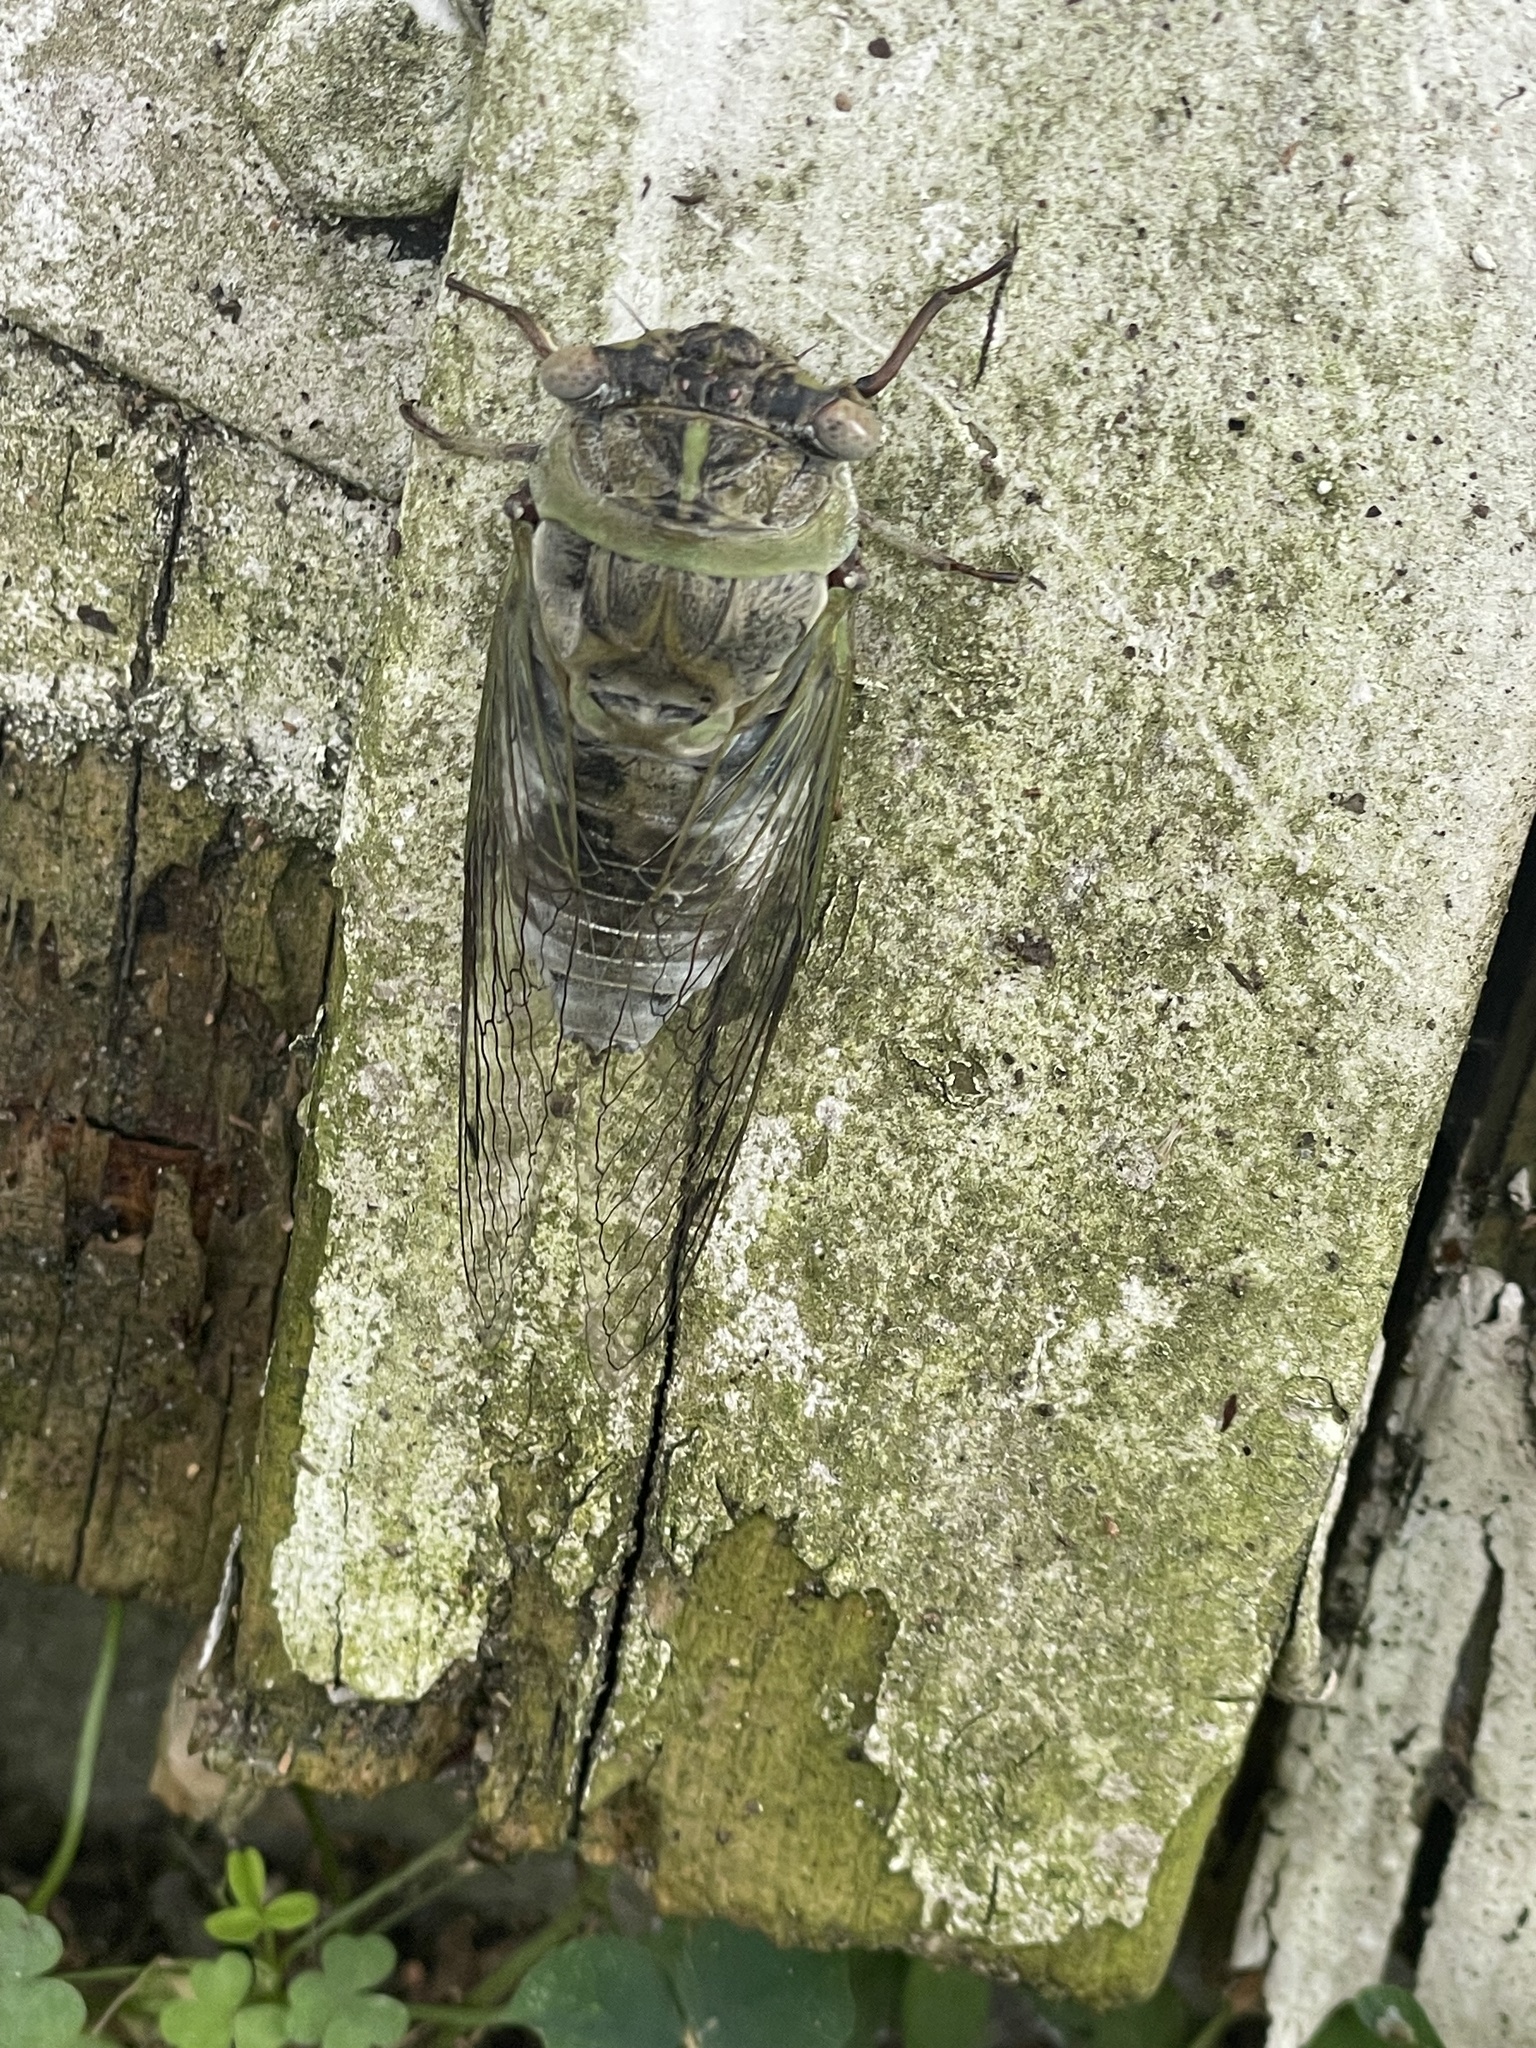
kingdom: Animalia
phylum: Arthropoda
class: Insecta
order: Hemiptera
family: Cicadidae
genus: Diceroprocta
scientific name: Diceroprocta grossa
